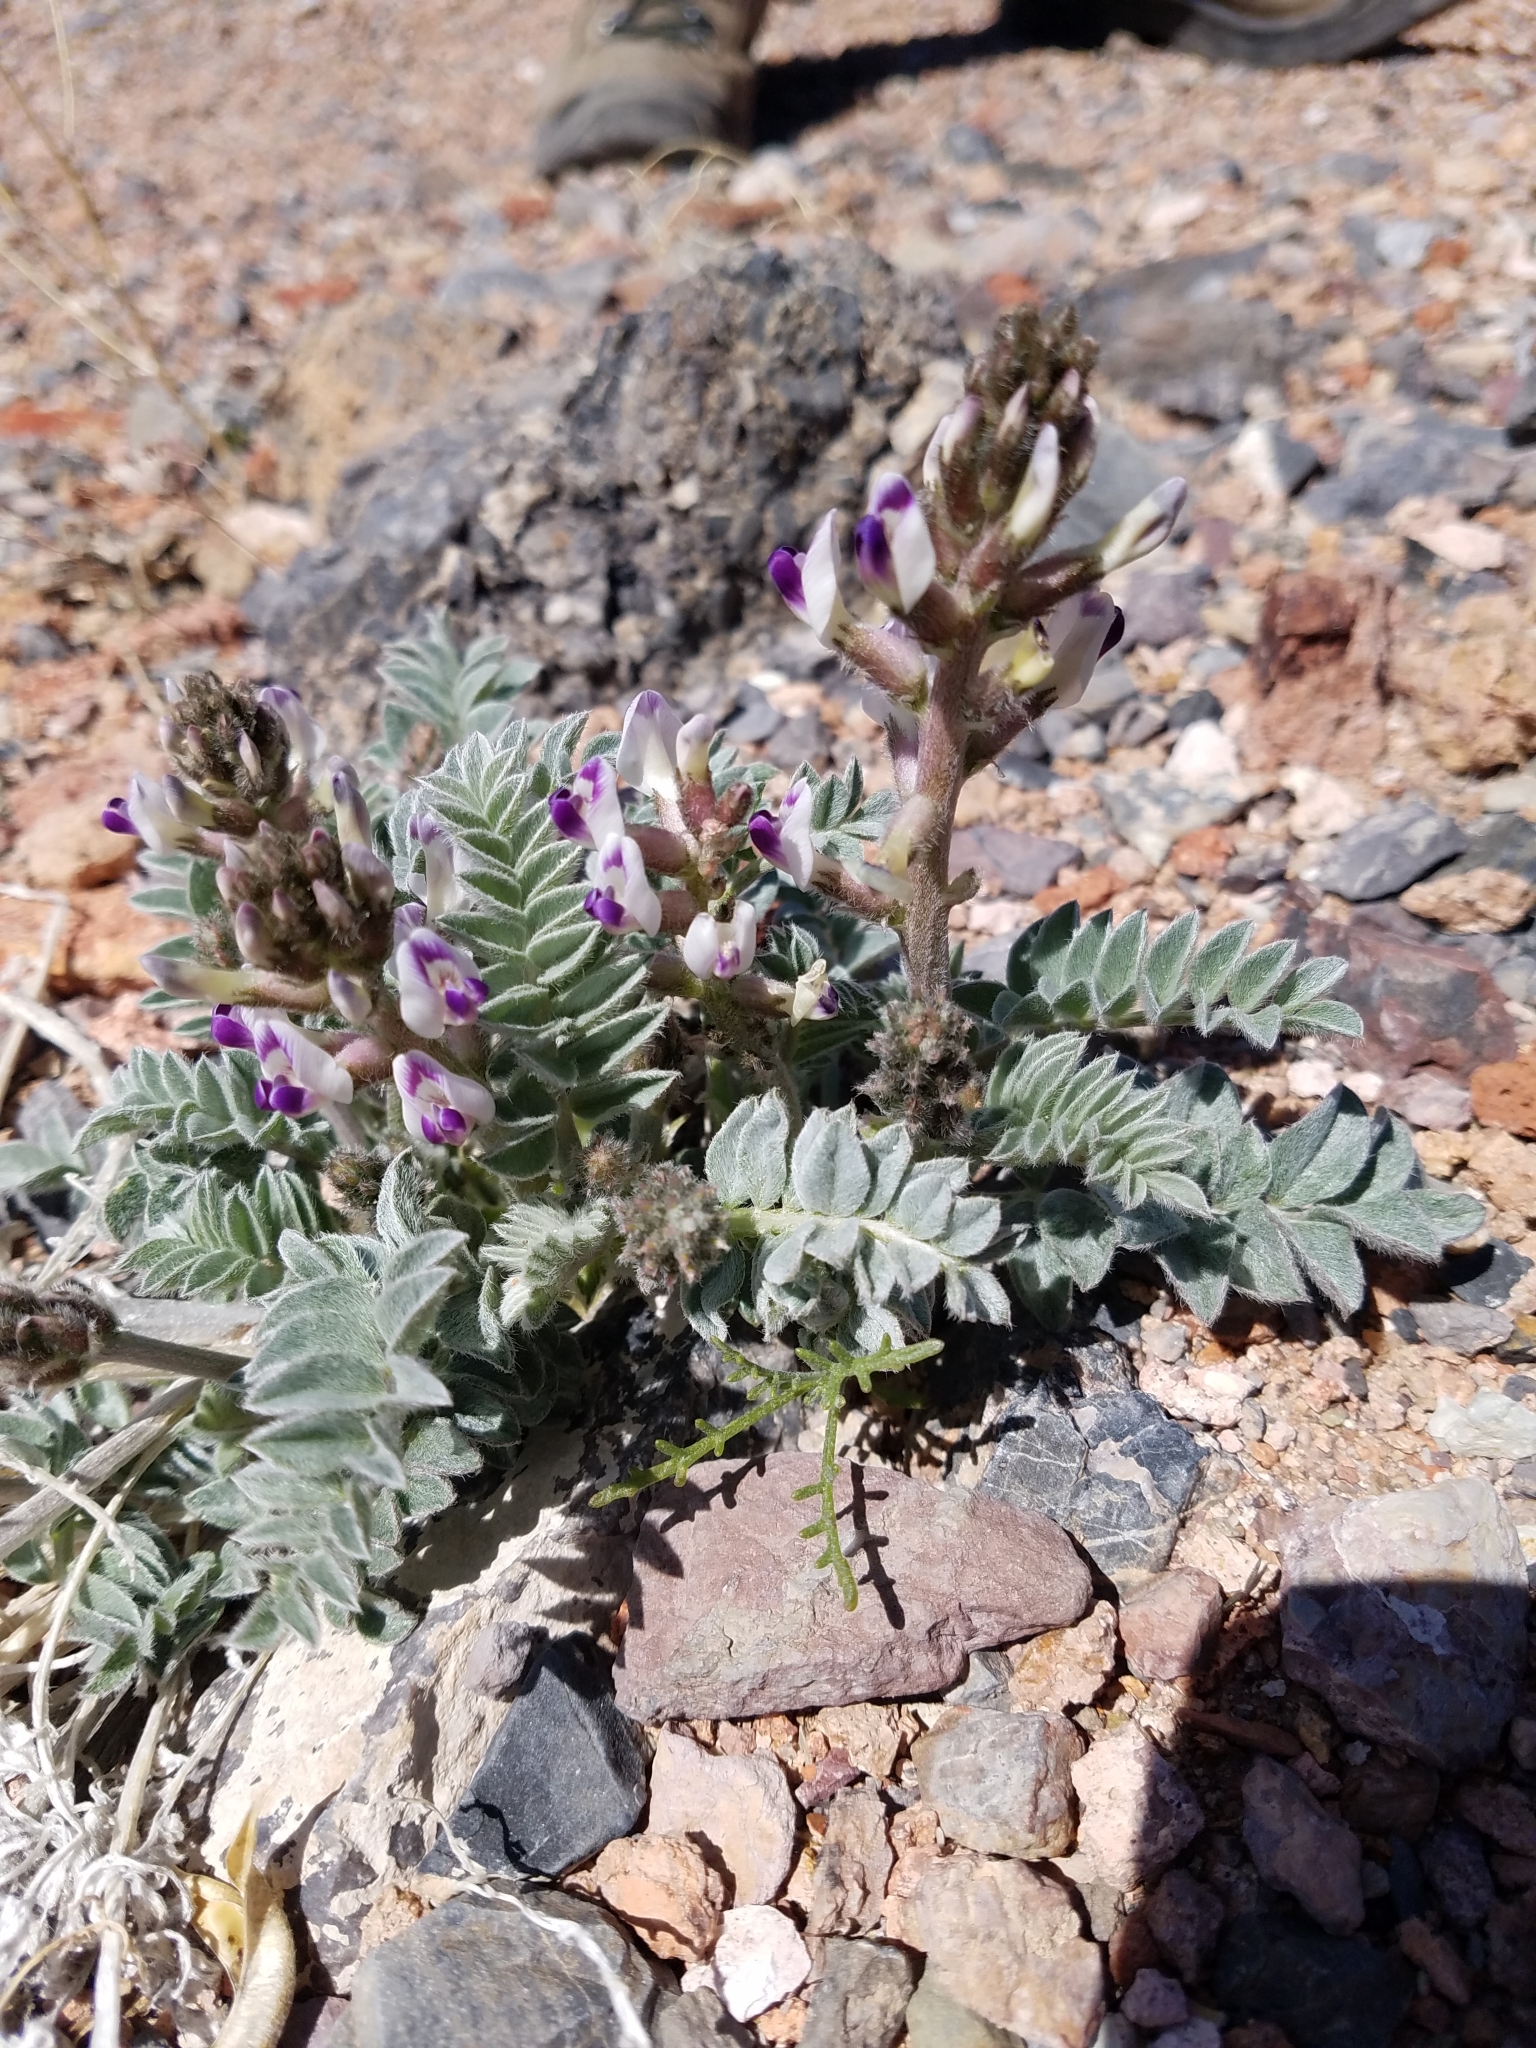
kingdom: Plantae
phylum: Tracheophyta
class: Magnoliopsida
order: Fabales
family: Fabaceae
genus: Astragalus
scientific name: Astragalus layneae
